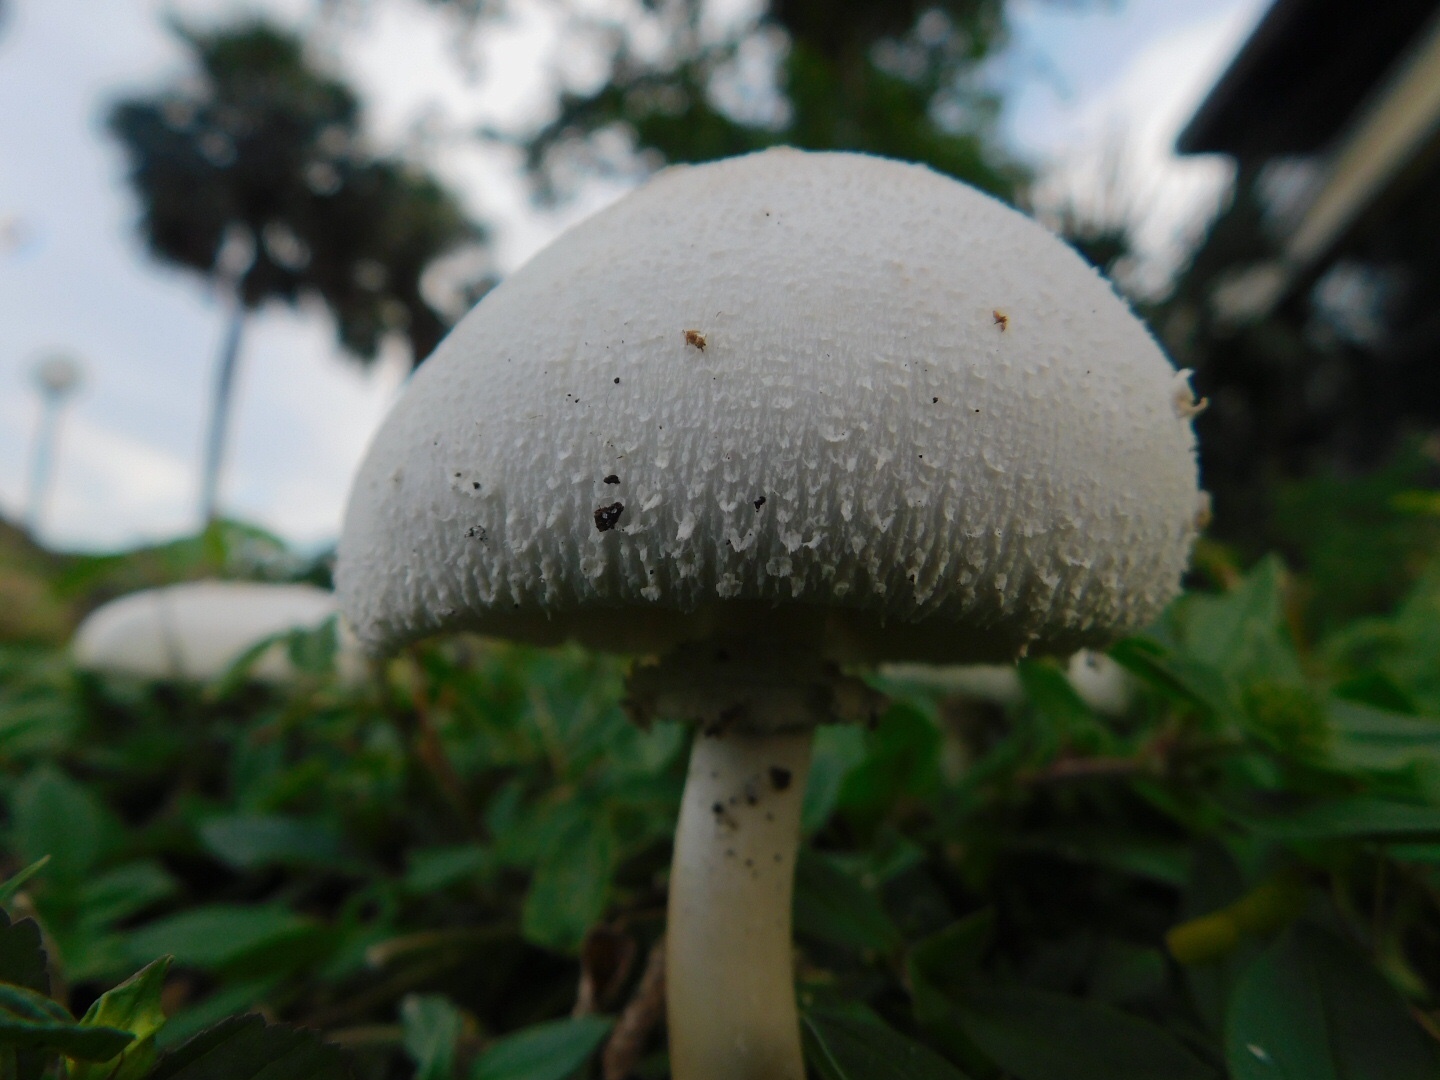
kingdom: Fungi
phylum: Basidiomycota
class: Agaricomycetes
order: Agaricales
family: Agaricaceae
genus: Chlorophyllum
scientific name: Chlorophyllum molybdites
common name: False parasol
